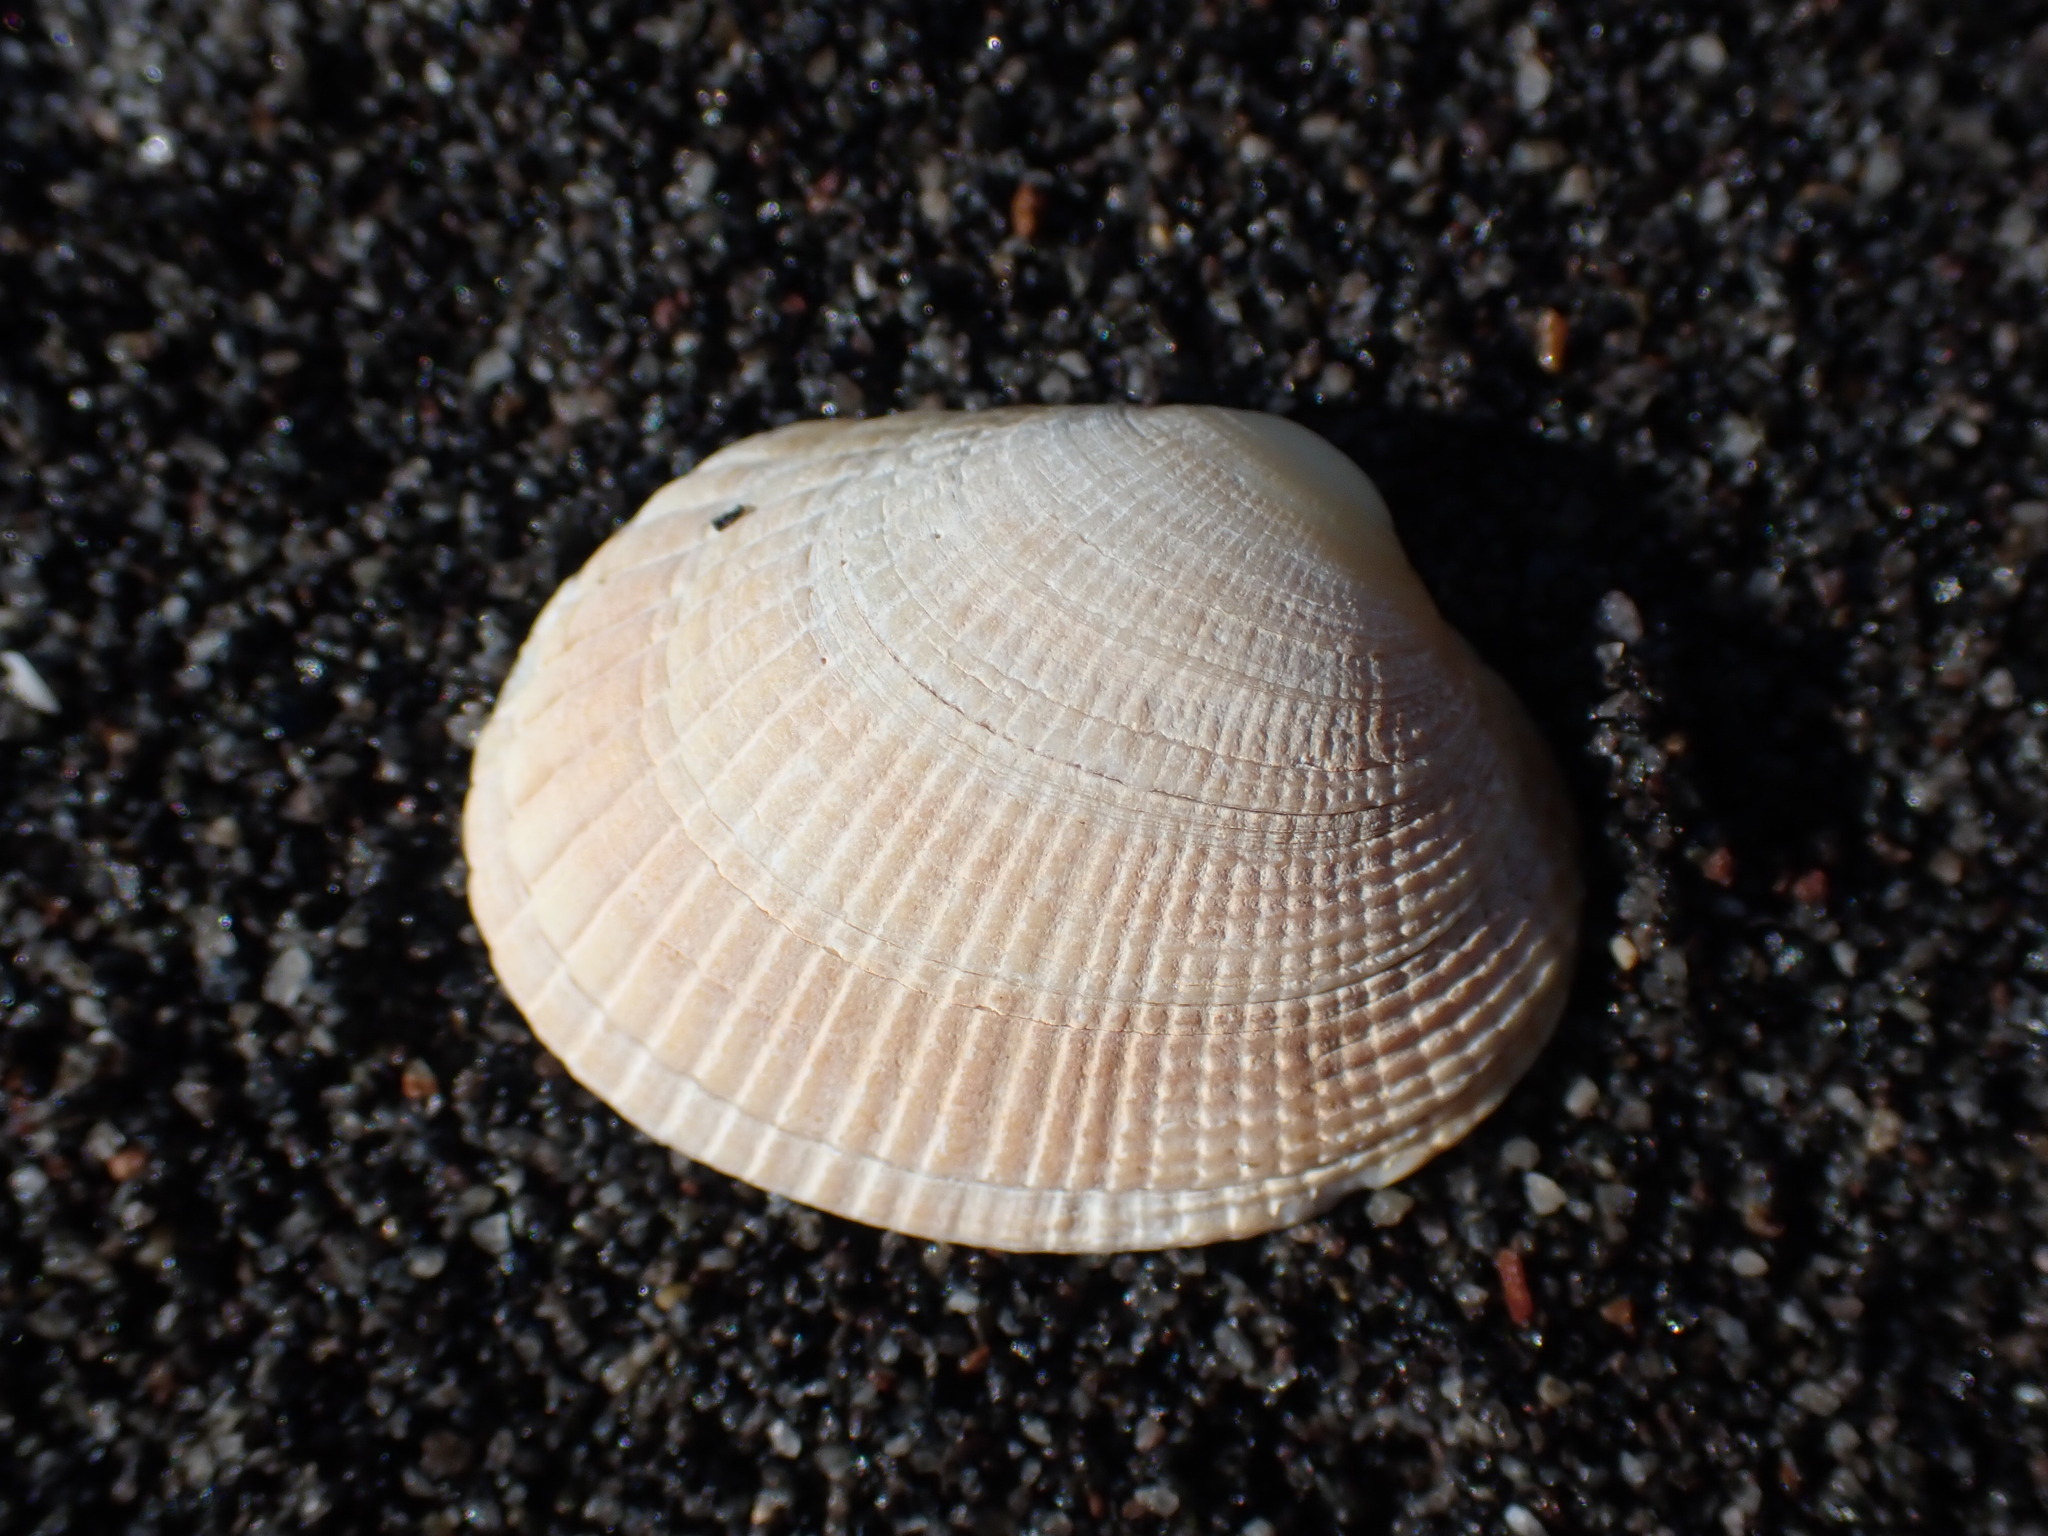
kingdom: Animalia
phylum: Mollusca
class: Bivalvia
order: Venerida
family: Veneridae
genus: Leukoma
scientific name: Leukoma crassicosta
